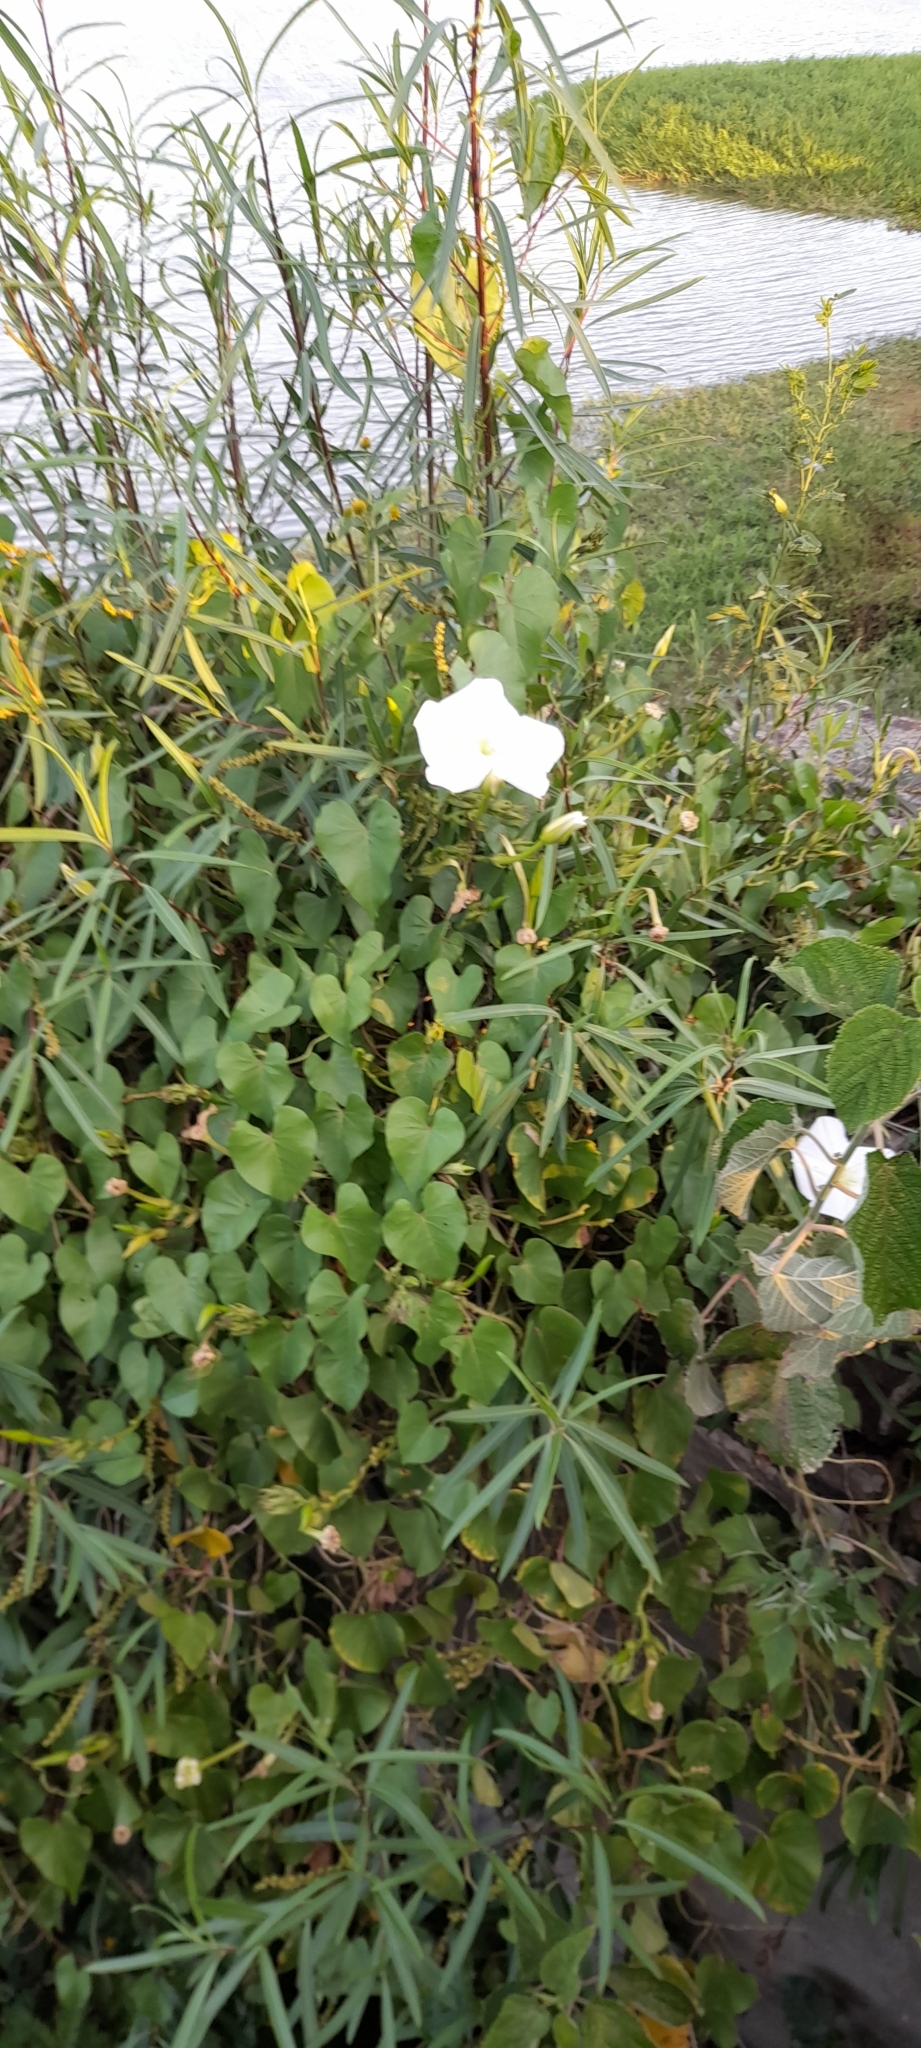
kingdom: Plantae
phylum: Tracheophyta
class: Magnoliopsida
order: Solanales
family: Convolvulaceae
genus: Ipomoea
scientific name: Ipomoea alba
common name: Moonflower
